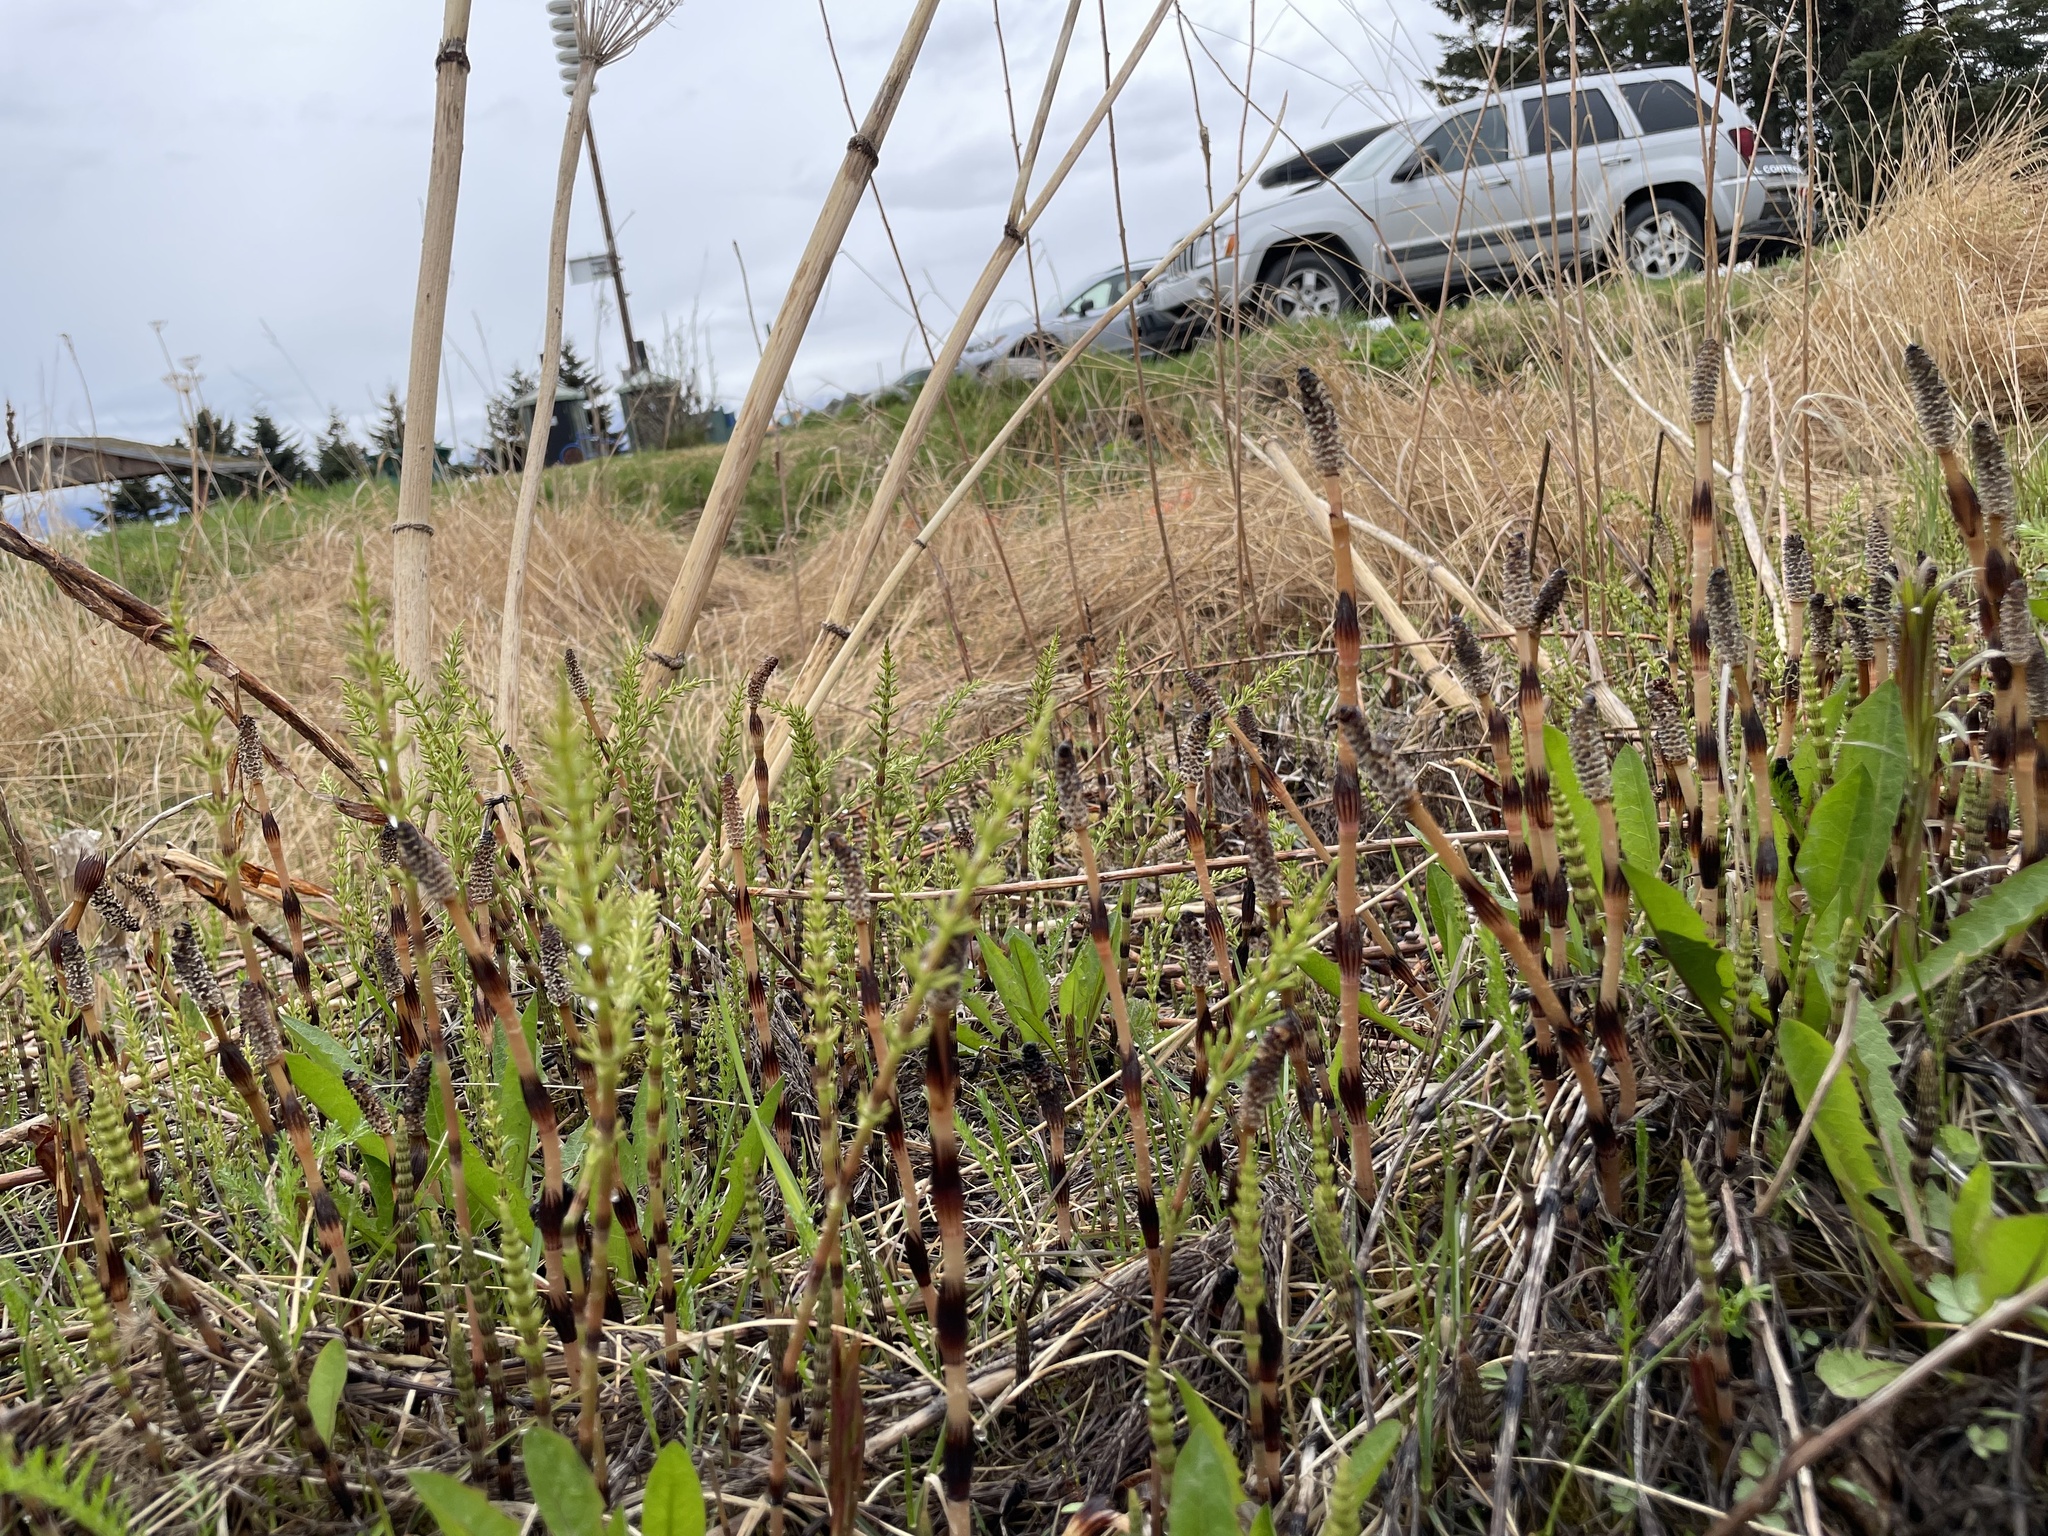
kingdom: Plantae
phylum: Tracheophyta
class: Polypodiopsida
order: Equisetales
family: Equisetaceae
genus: Equisetum
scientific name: Equisetum arvense
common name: Field horsetail
